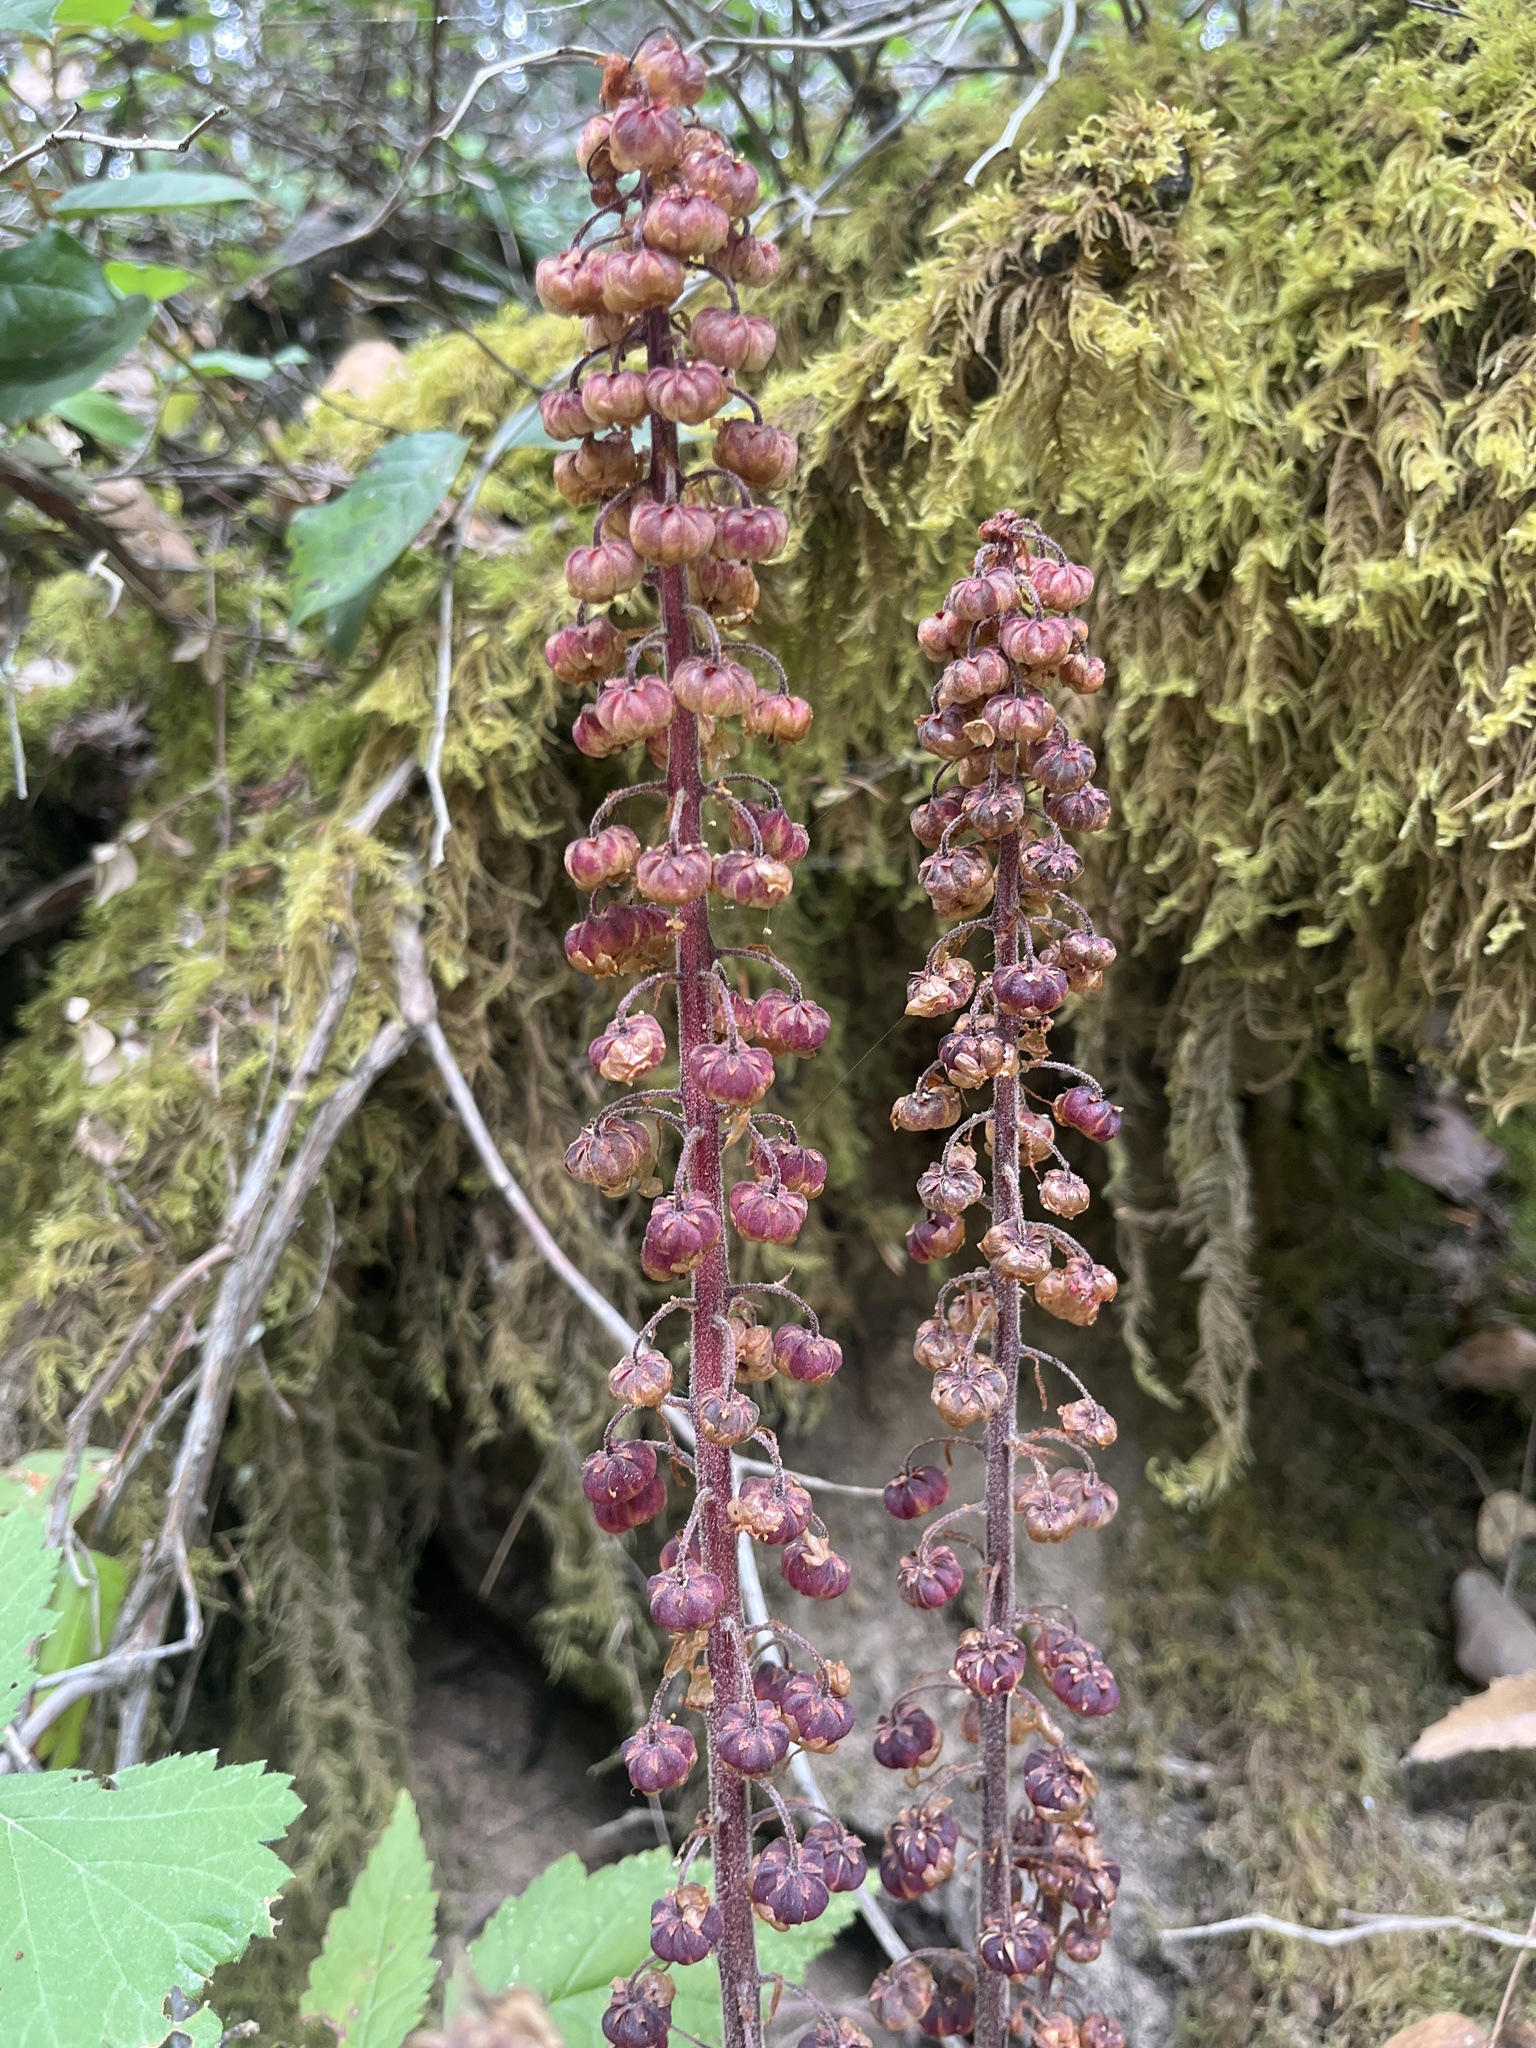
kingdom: Plantae
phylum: Tracheophyta
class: Magnoliopsida
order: Ericales
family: Ericaceae
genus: Pterospora
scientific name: Pterospora andromedea
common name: Giant bird's-nest
